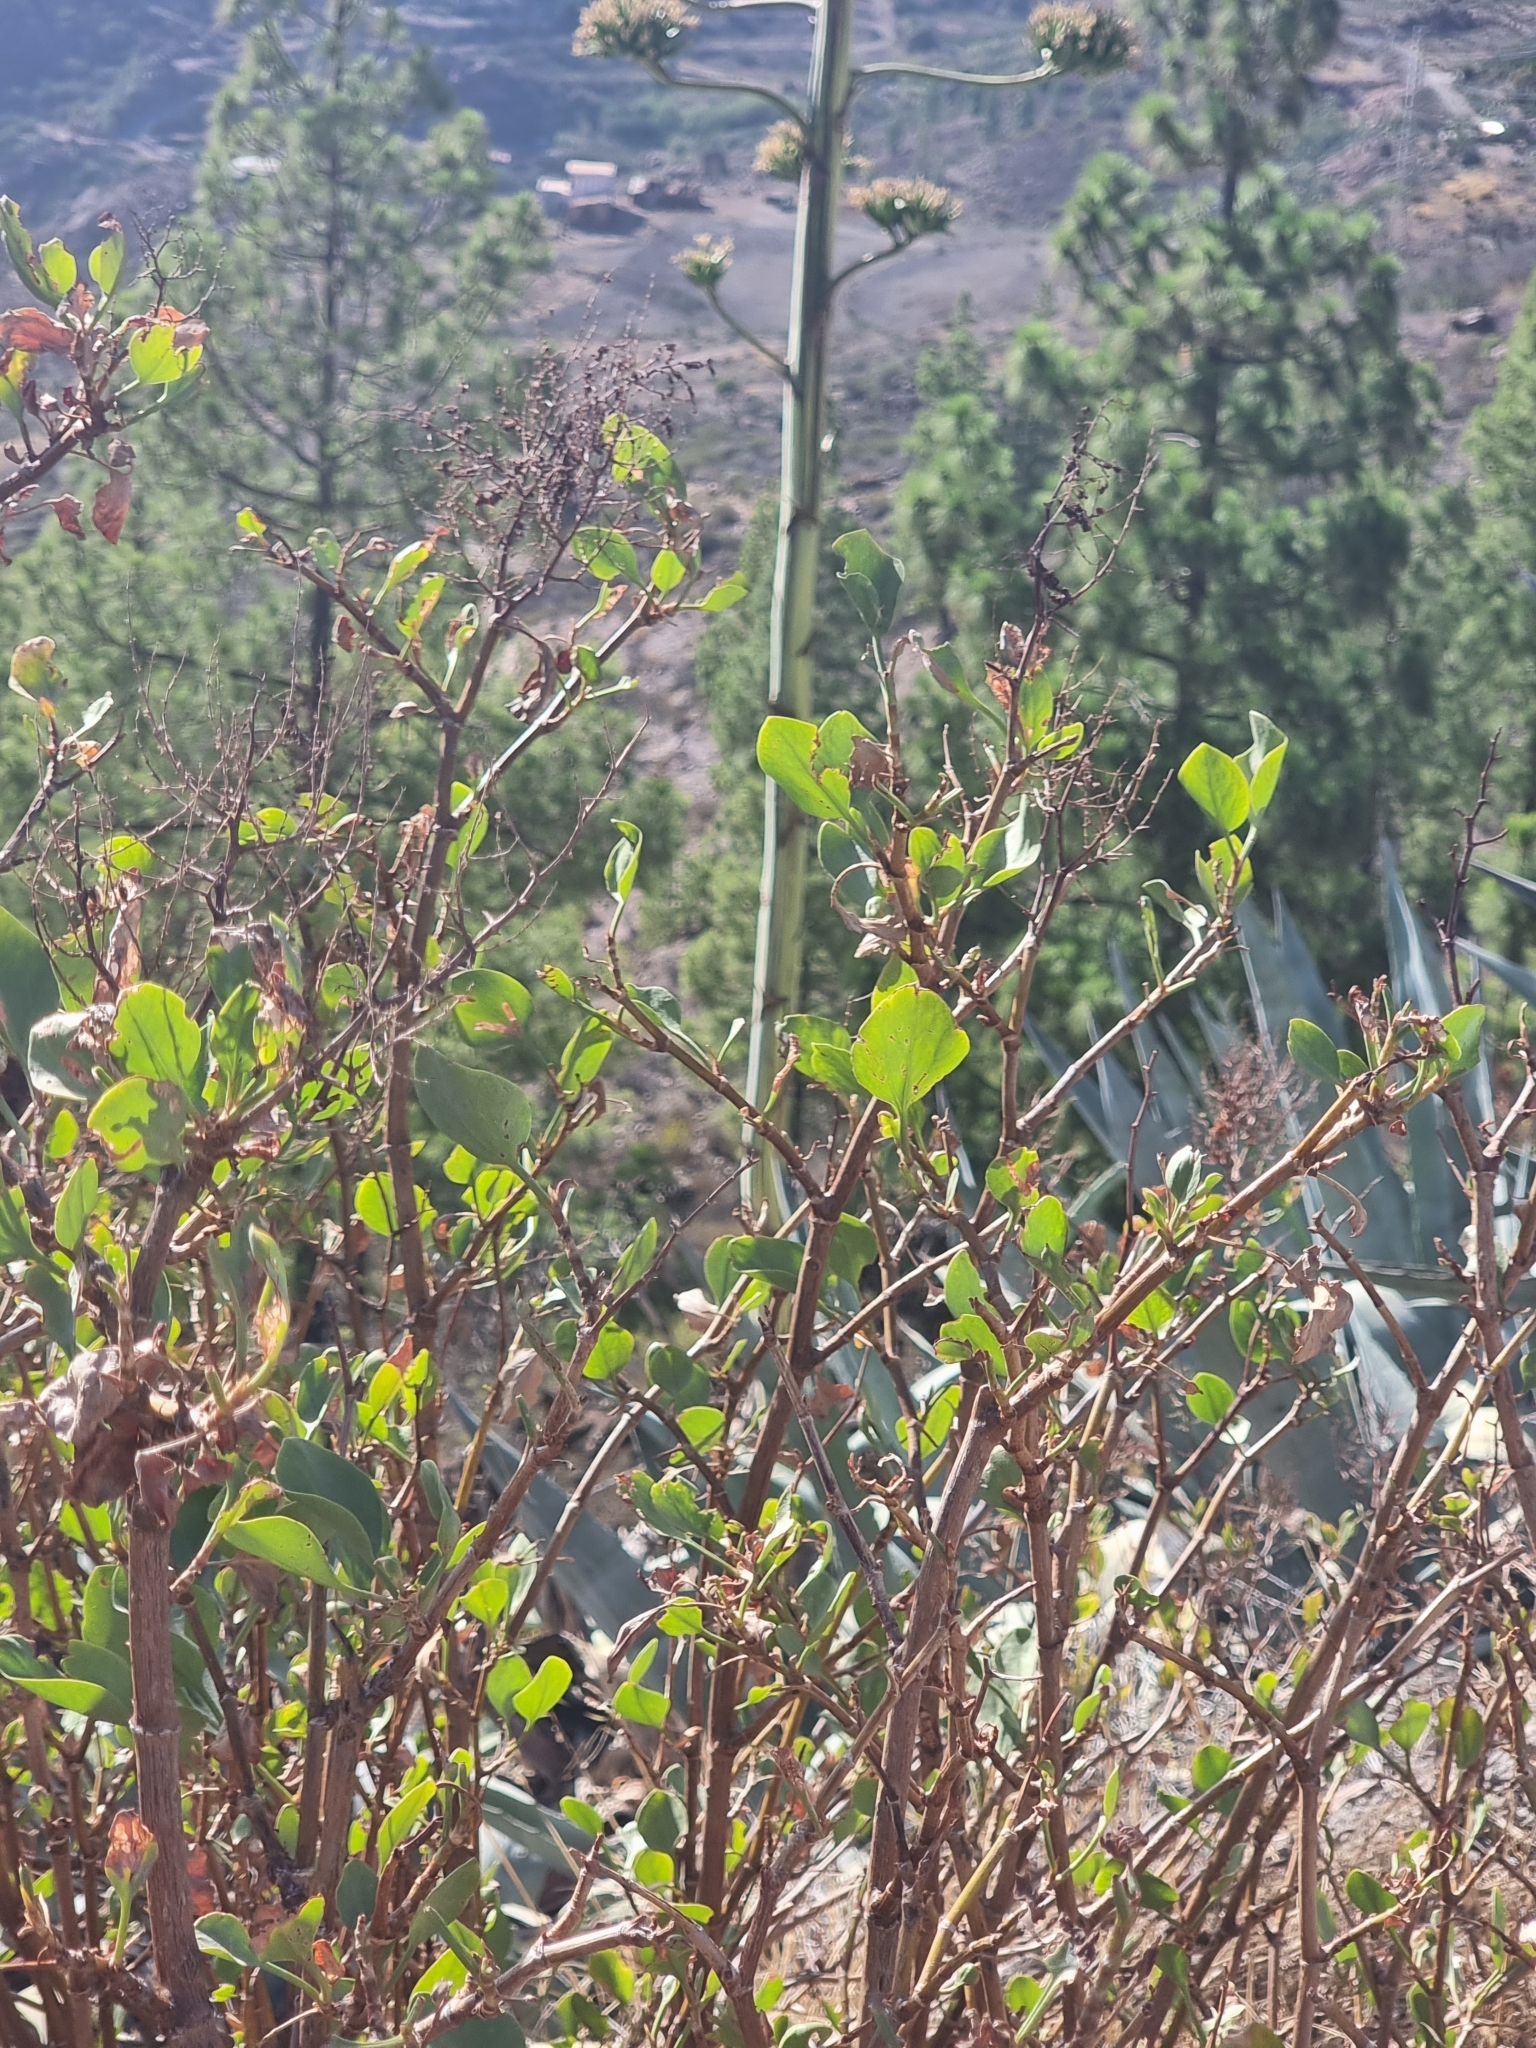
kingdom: Plantae
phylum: Tracheophyta
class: Magnoliopsida
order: Caryophyllales
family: Polygonaceae
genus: Rumex
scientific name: Rumex lunaria
